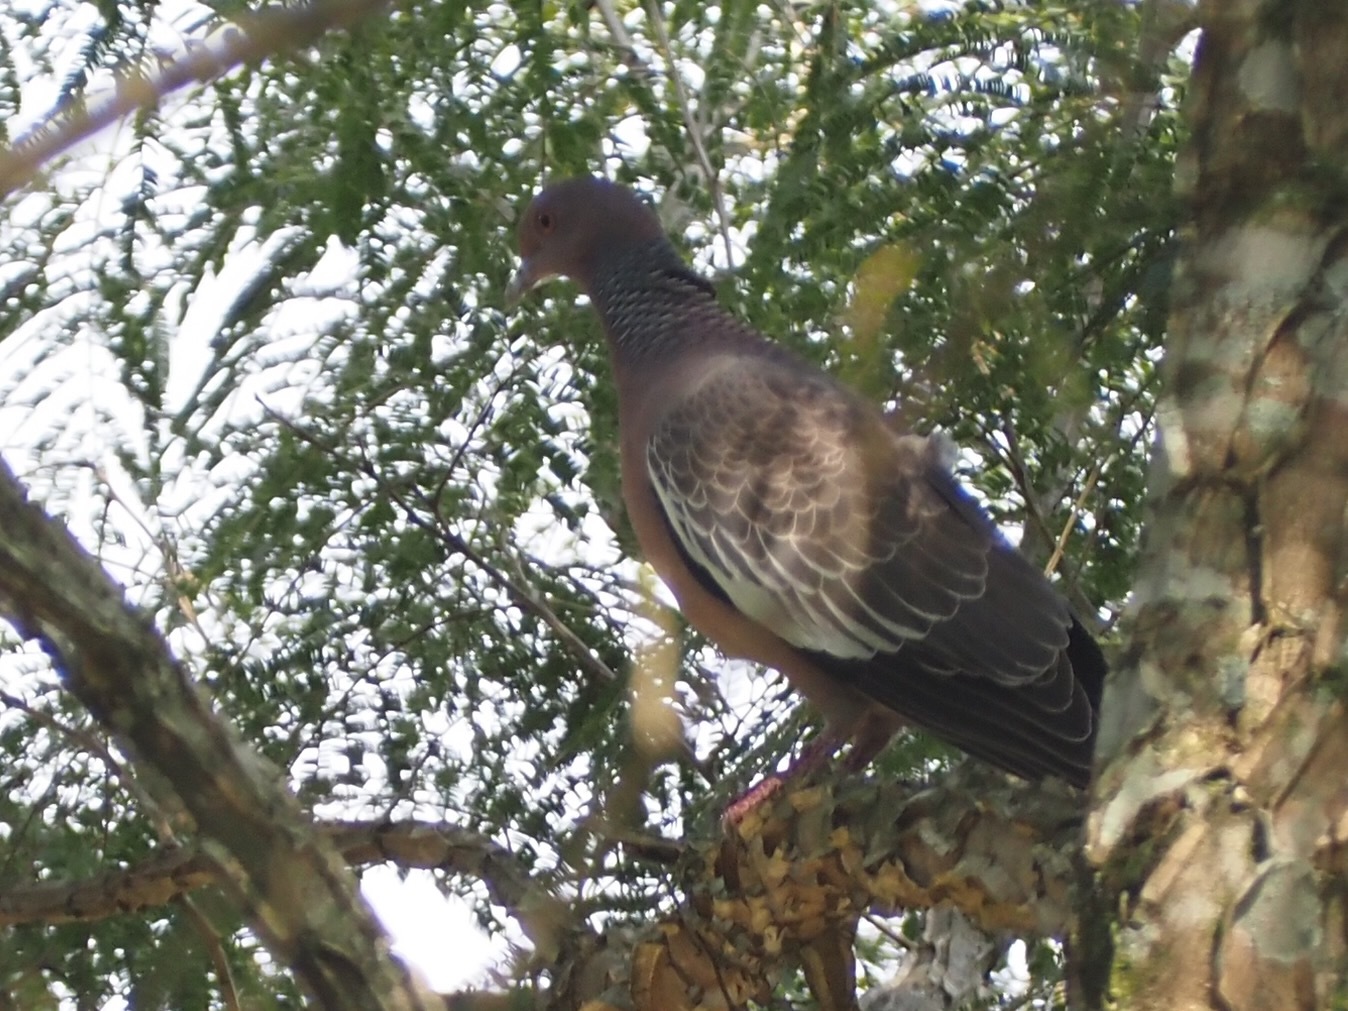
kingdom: Animalia
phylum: Chordata
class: Aves
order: Columbiformes
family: Columbidae
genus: Patagioenas
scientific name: Patagioenas picazuro
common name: Picazuro pigeon
